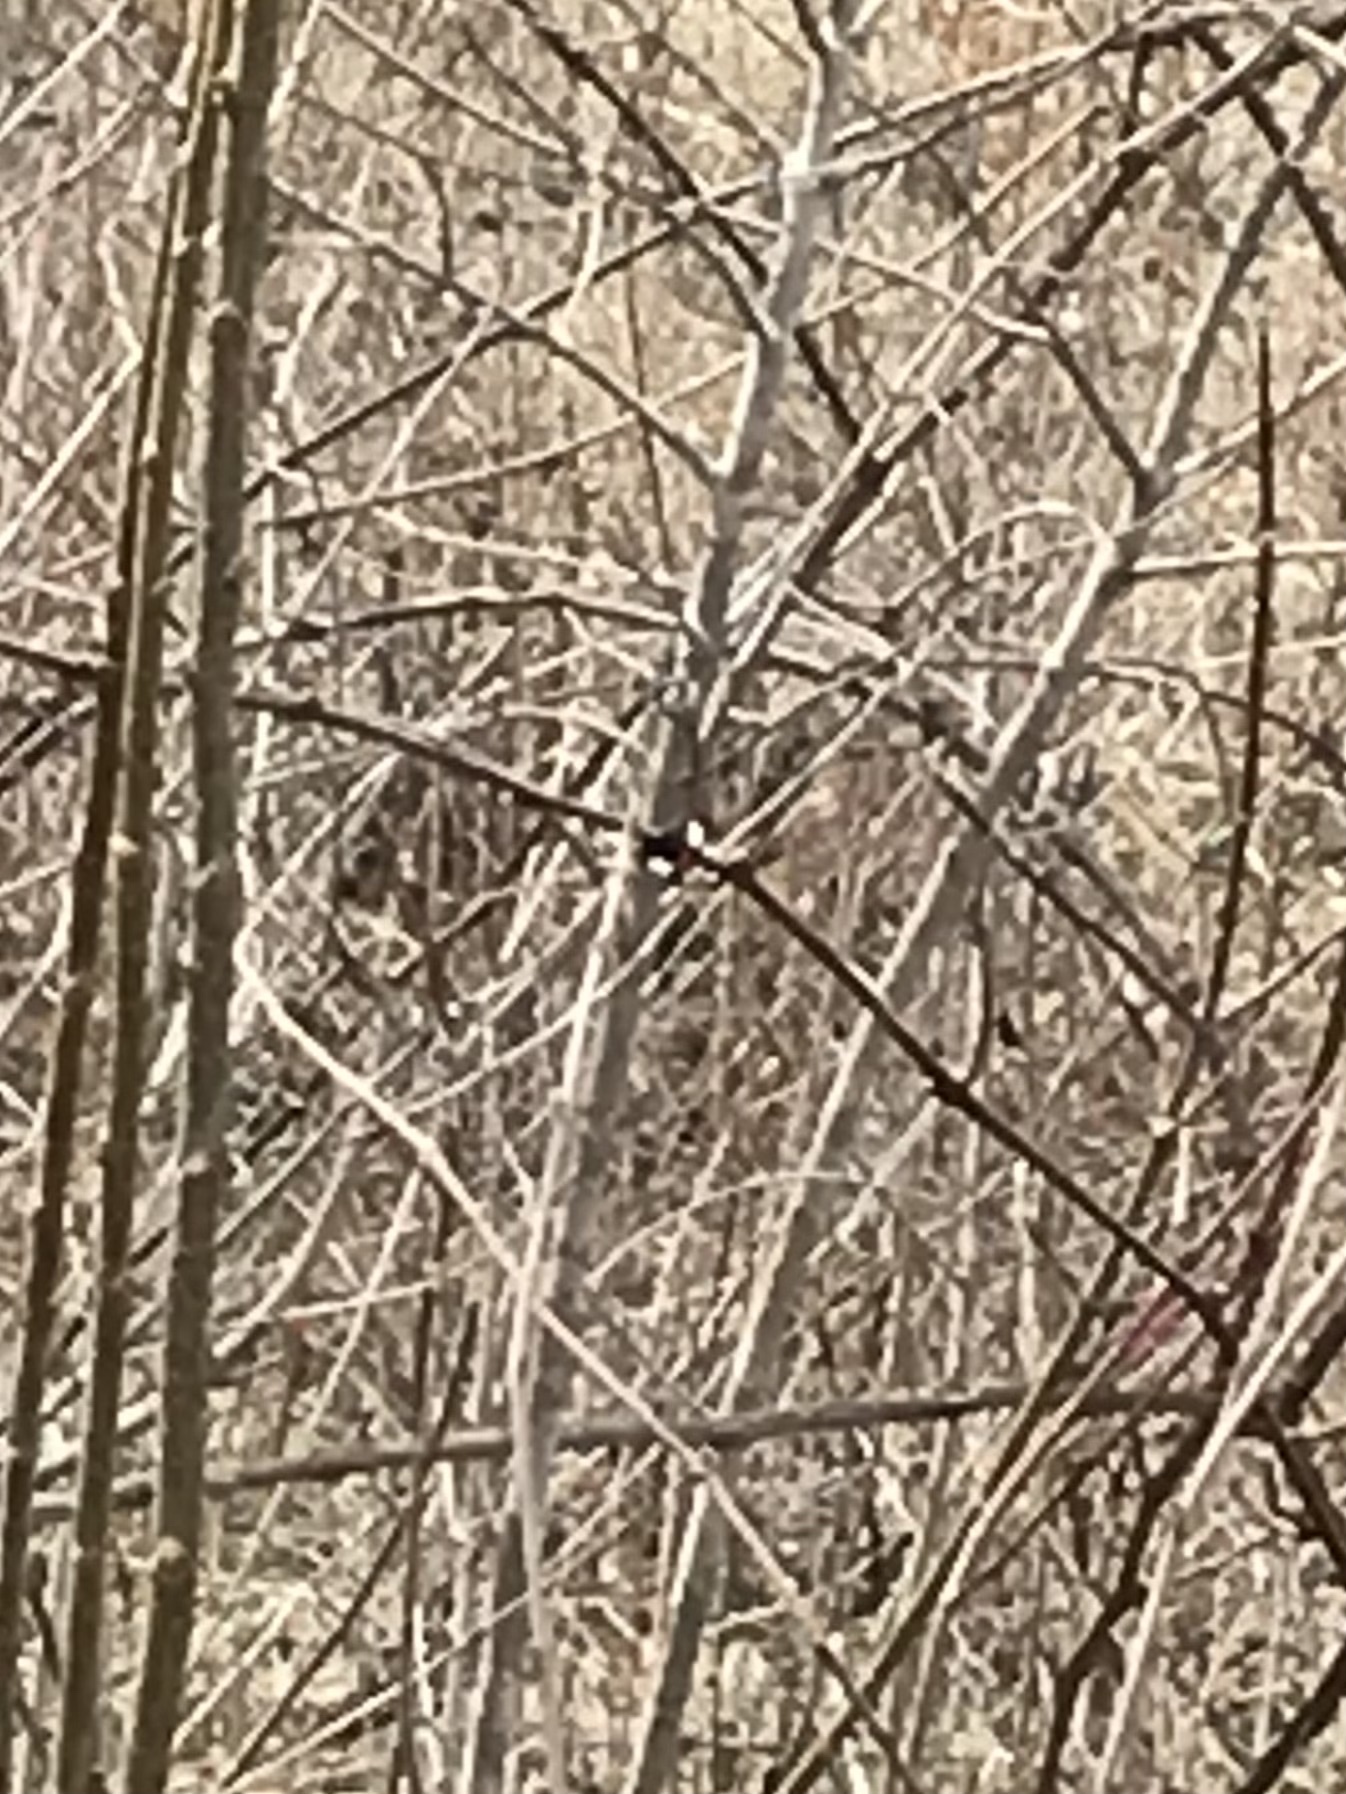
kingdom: Animalia
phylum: Arthropoda
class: Insecta
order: Lepidoptera
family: Noctuidae
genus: Psychomorpha
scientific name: Psychomorpha epimenis
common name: Grapevine epimenis moth
